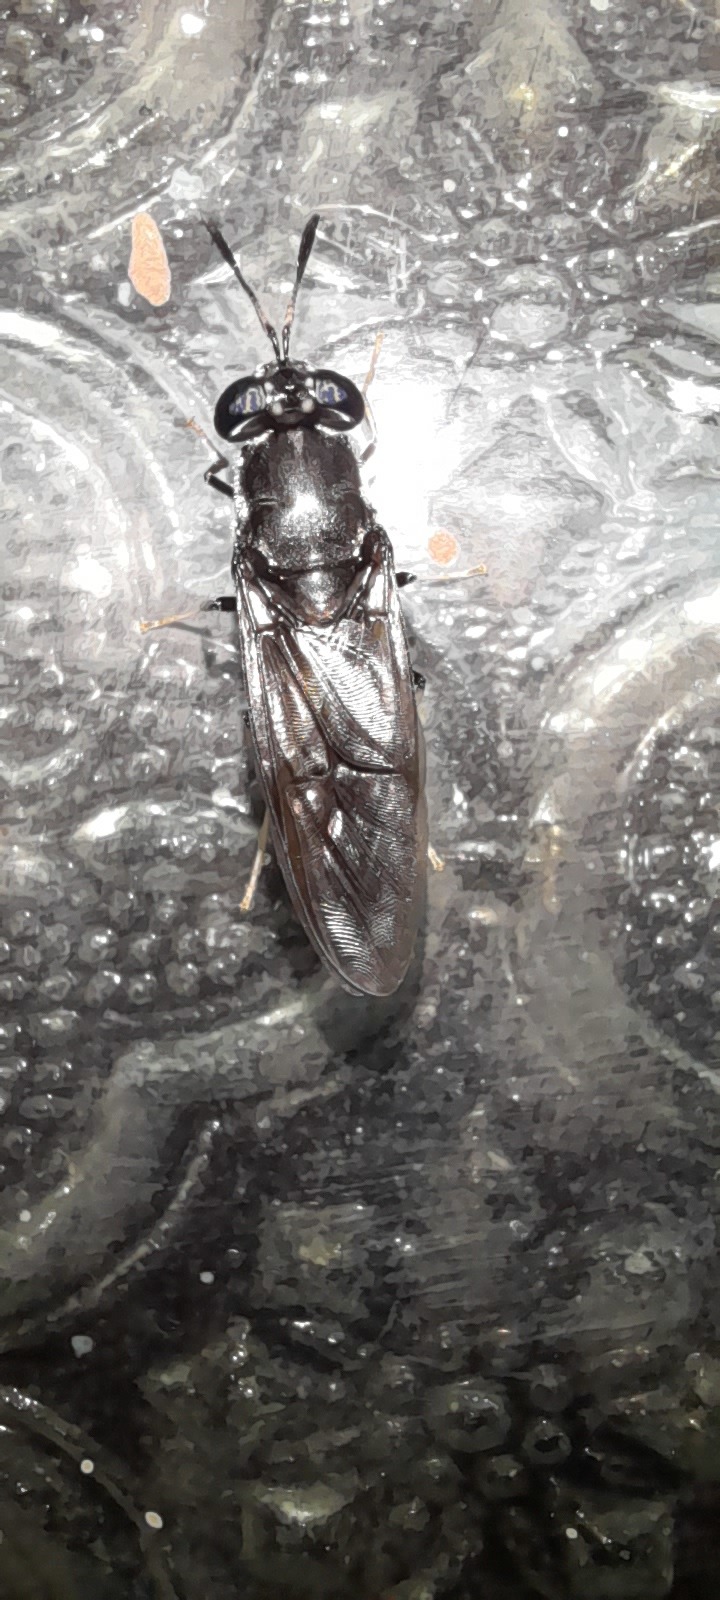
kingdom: Animalia
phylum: Arthropoda
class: Insecta
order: Diptera
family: Stratiomyidae
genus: Hermetia
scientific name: Hermetia illucens
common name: Black soldier fly
